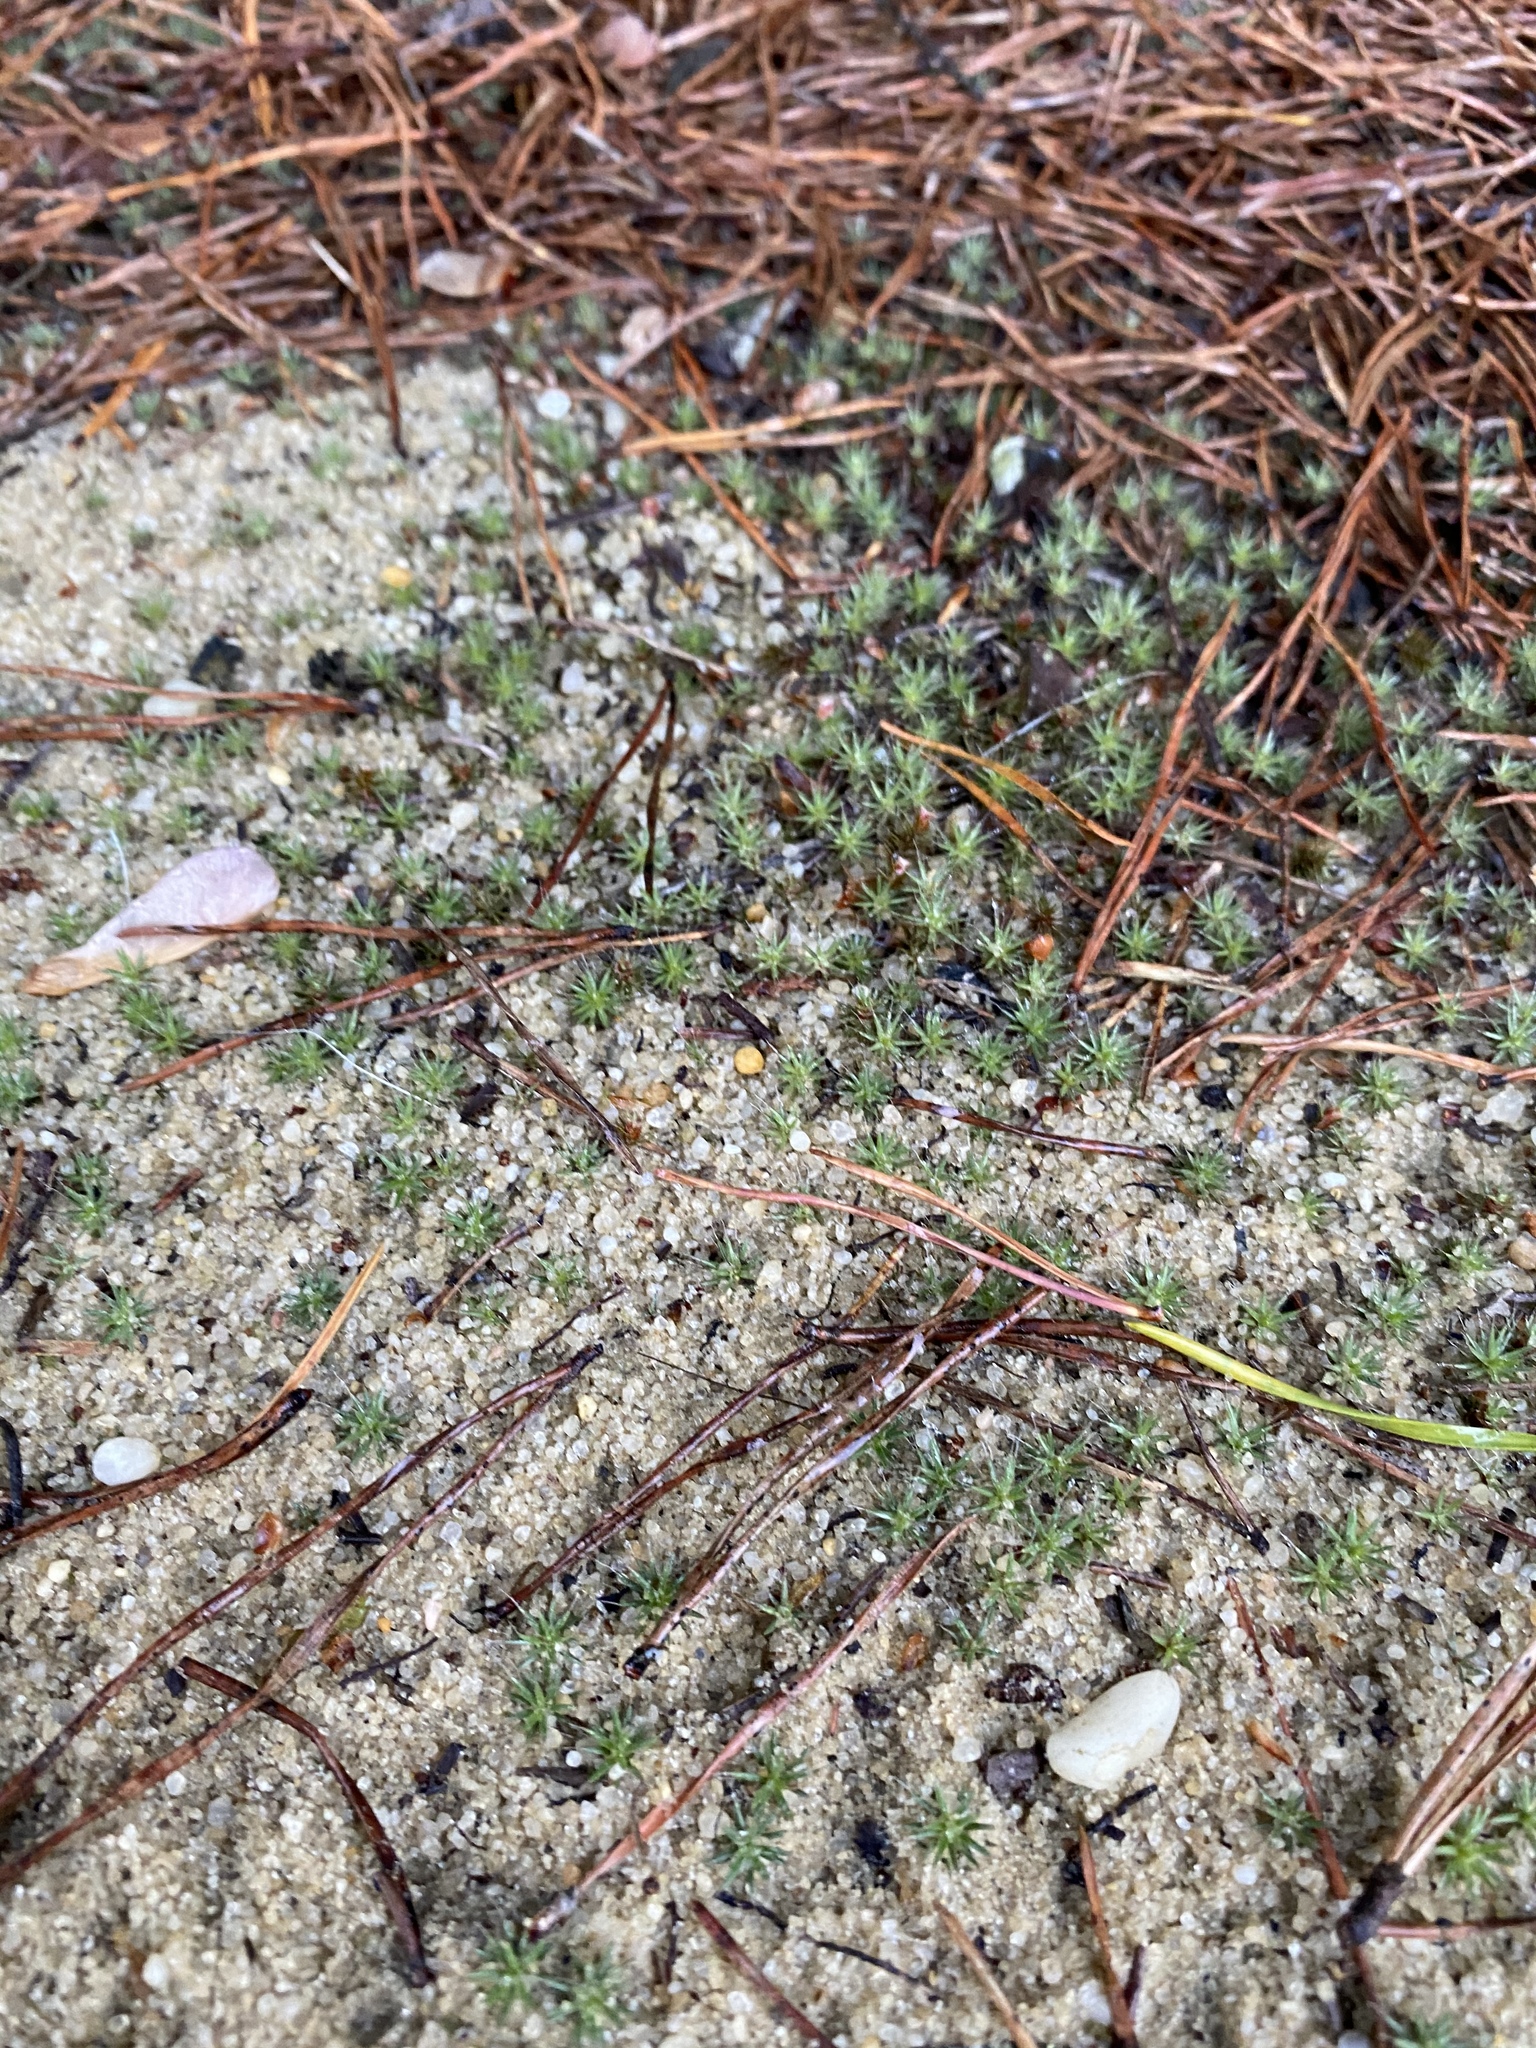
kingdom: Plantae
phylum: Bryophyta
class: Polytrichopsida
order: Polytrichales
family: Polytrichaceae
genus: Polytrichum
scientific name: Polytrichum piliferum
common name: Bristly haircap
